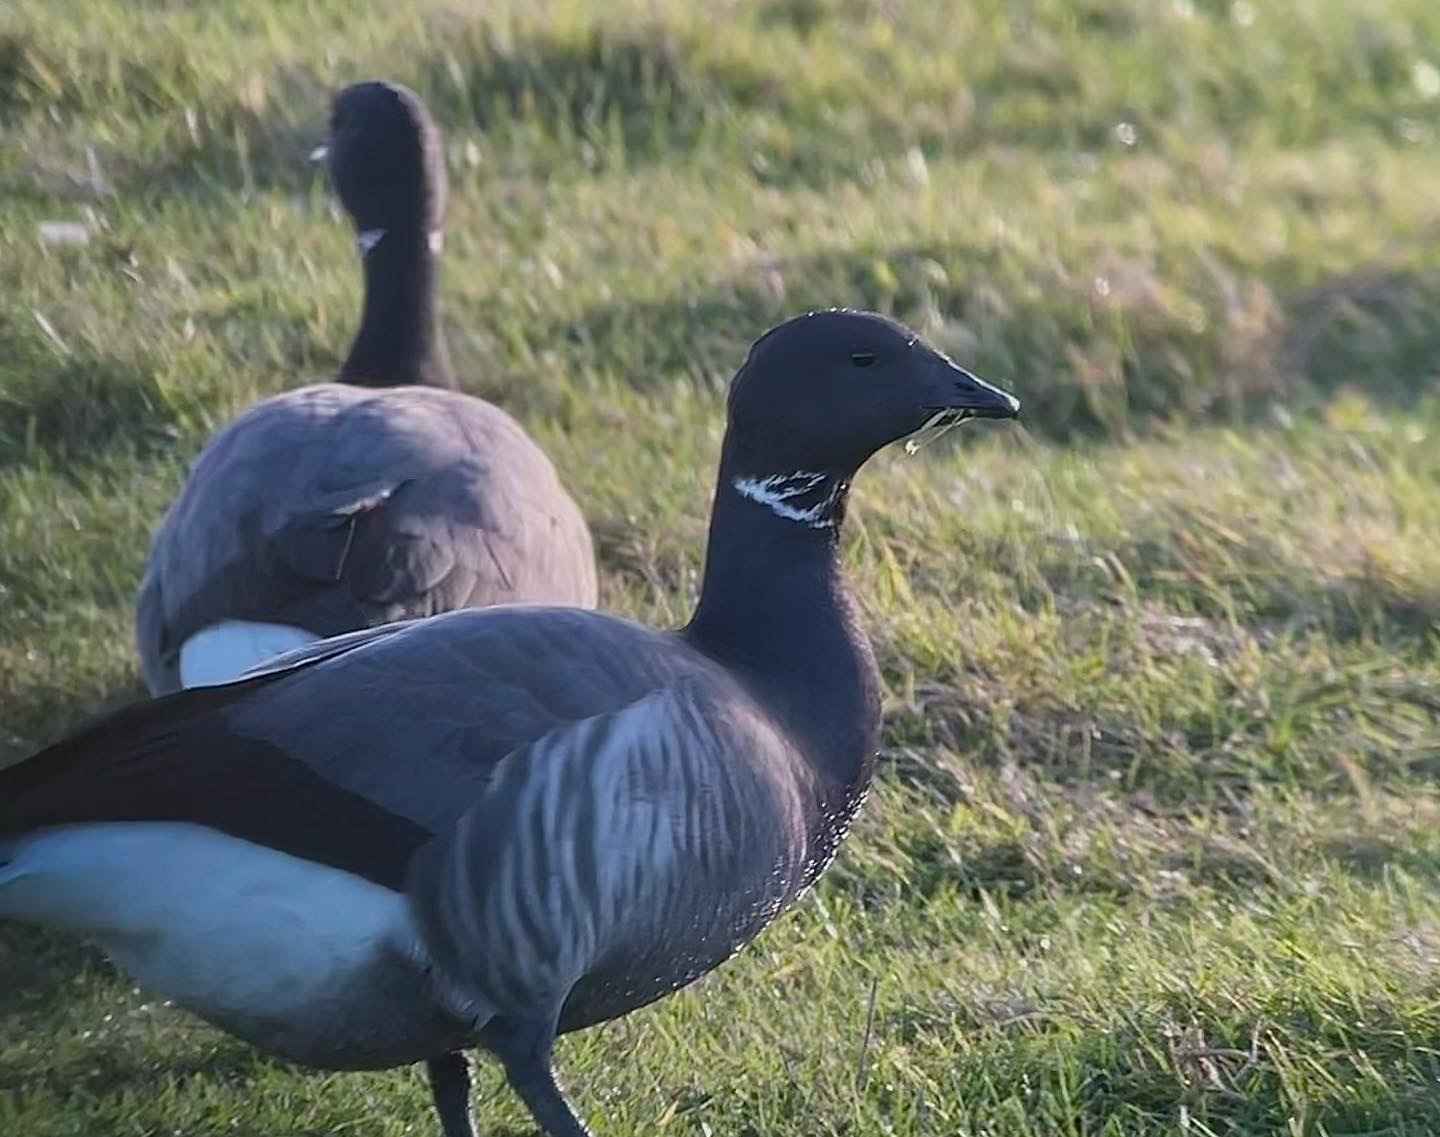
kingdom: Animalia
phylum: Chordata
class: Aves
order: Anseriformes
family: Anatidae
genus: Branta
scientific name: Branta bernicla
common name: Brant goose
